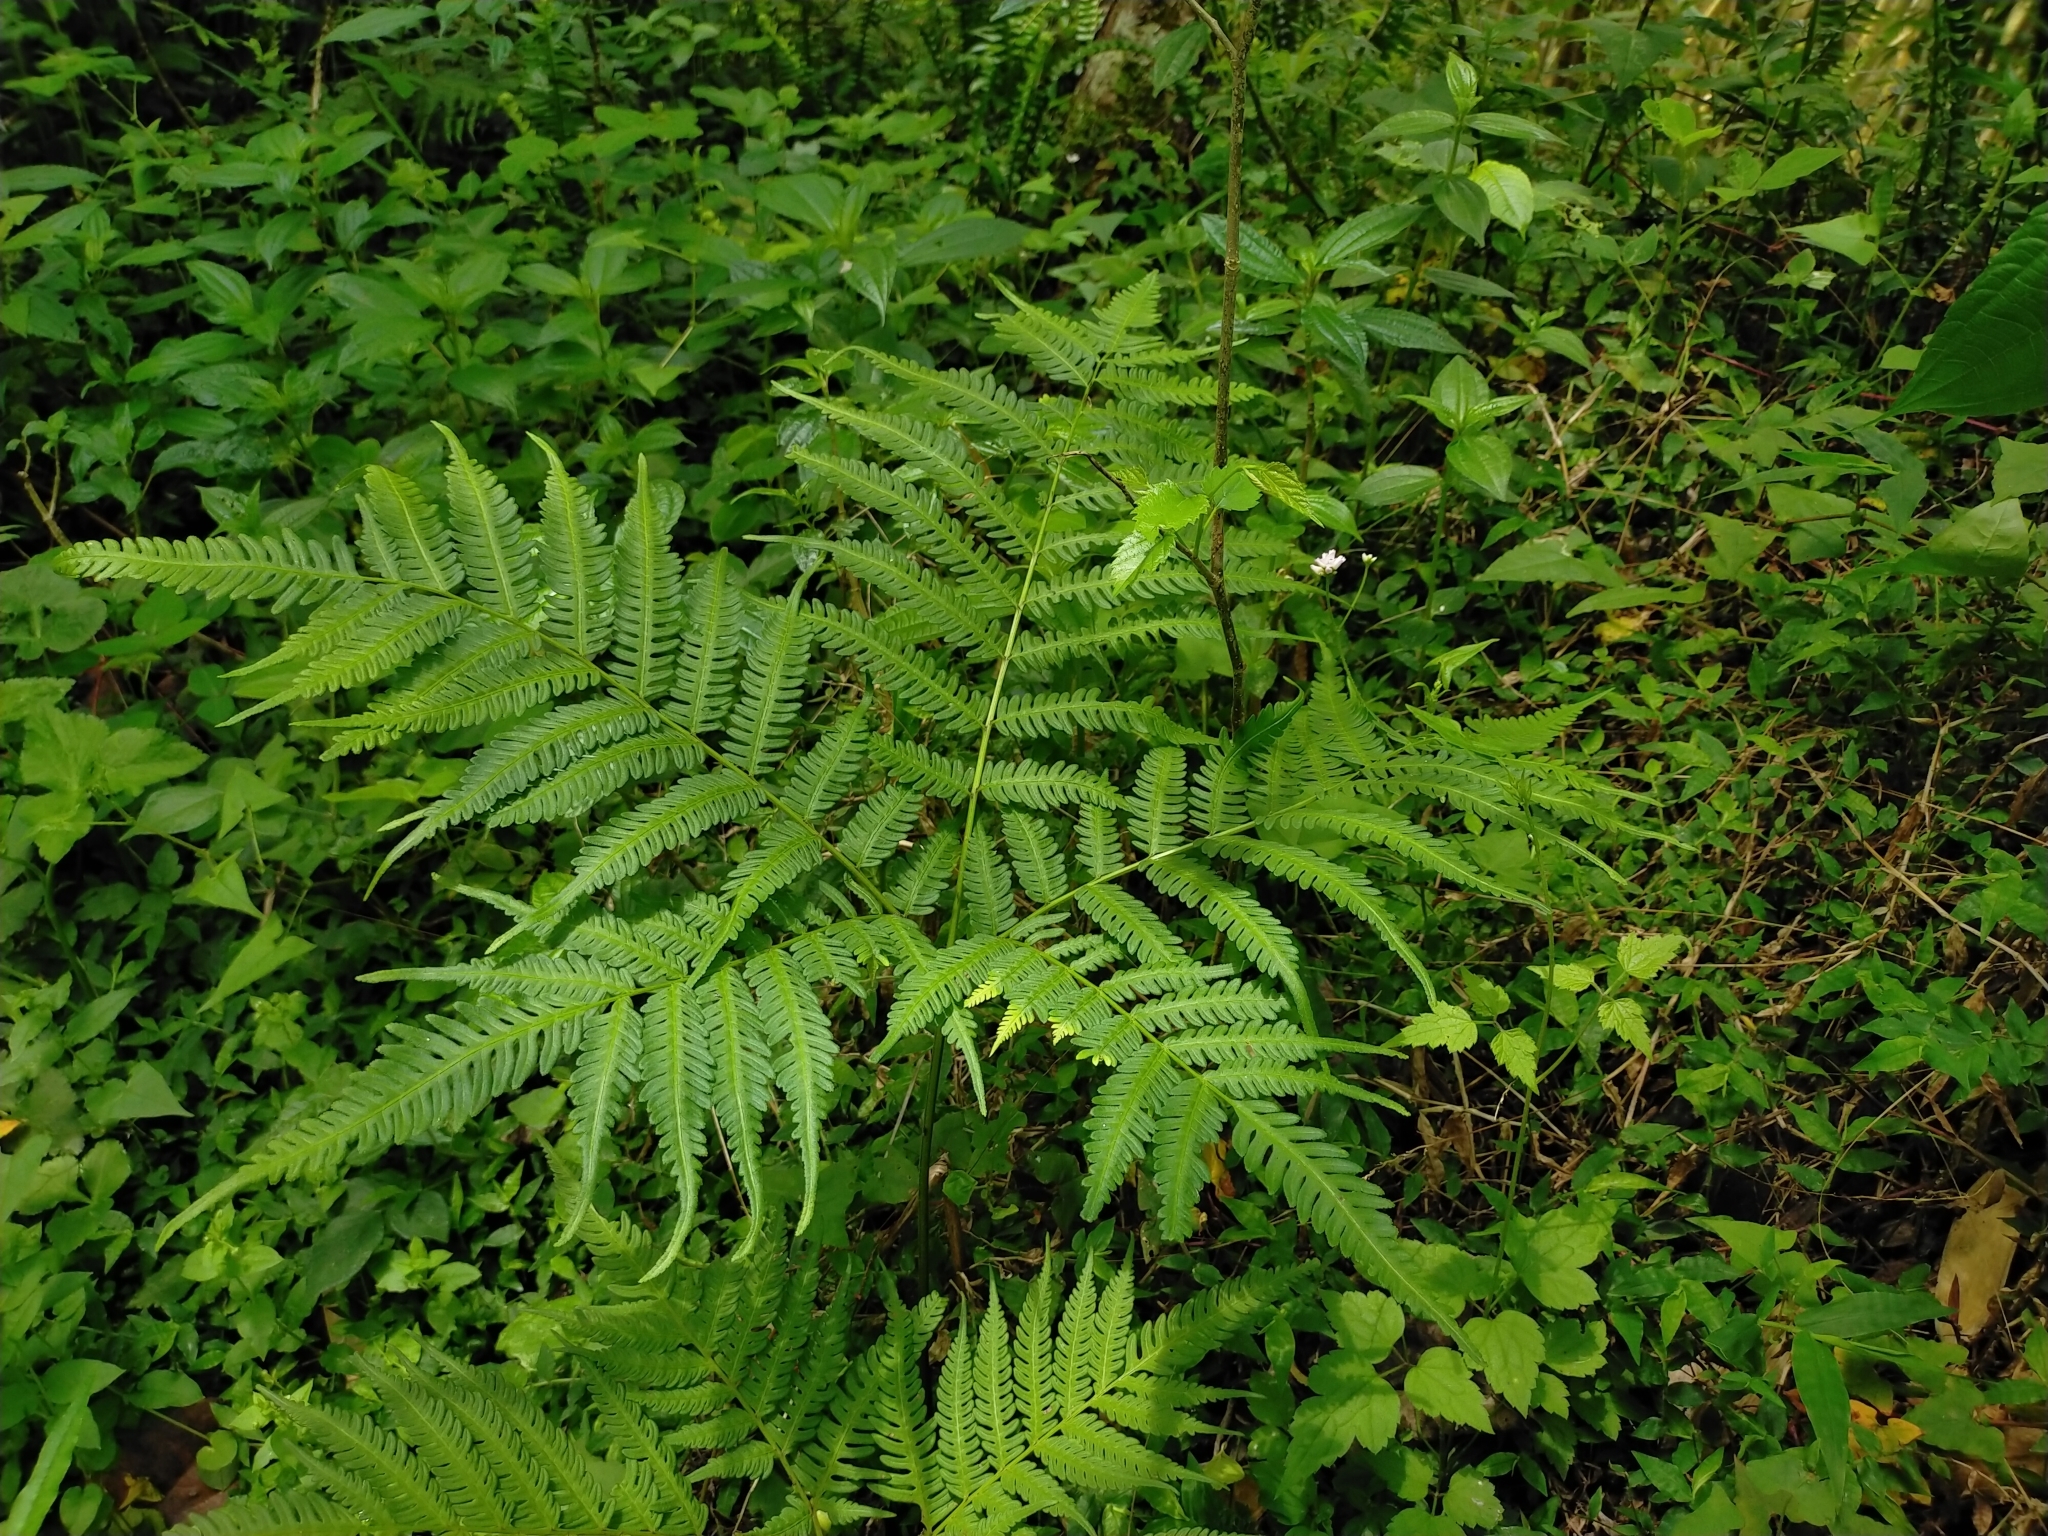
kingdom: Plantae
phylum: Tracheophyta
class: Polypodiopsida
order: Polypodiales
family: Pteridaceae
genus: Pteris
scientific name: Pteris wallichiana
